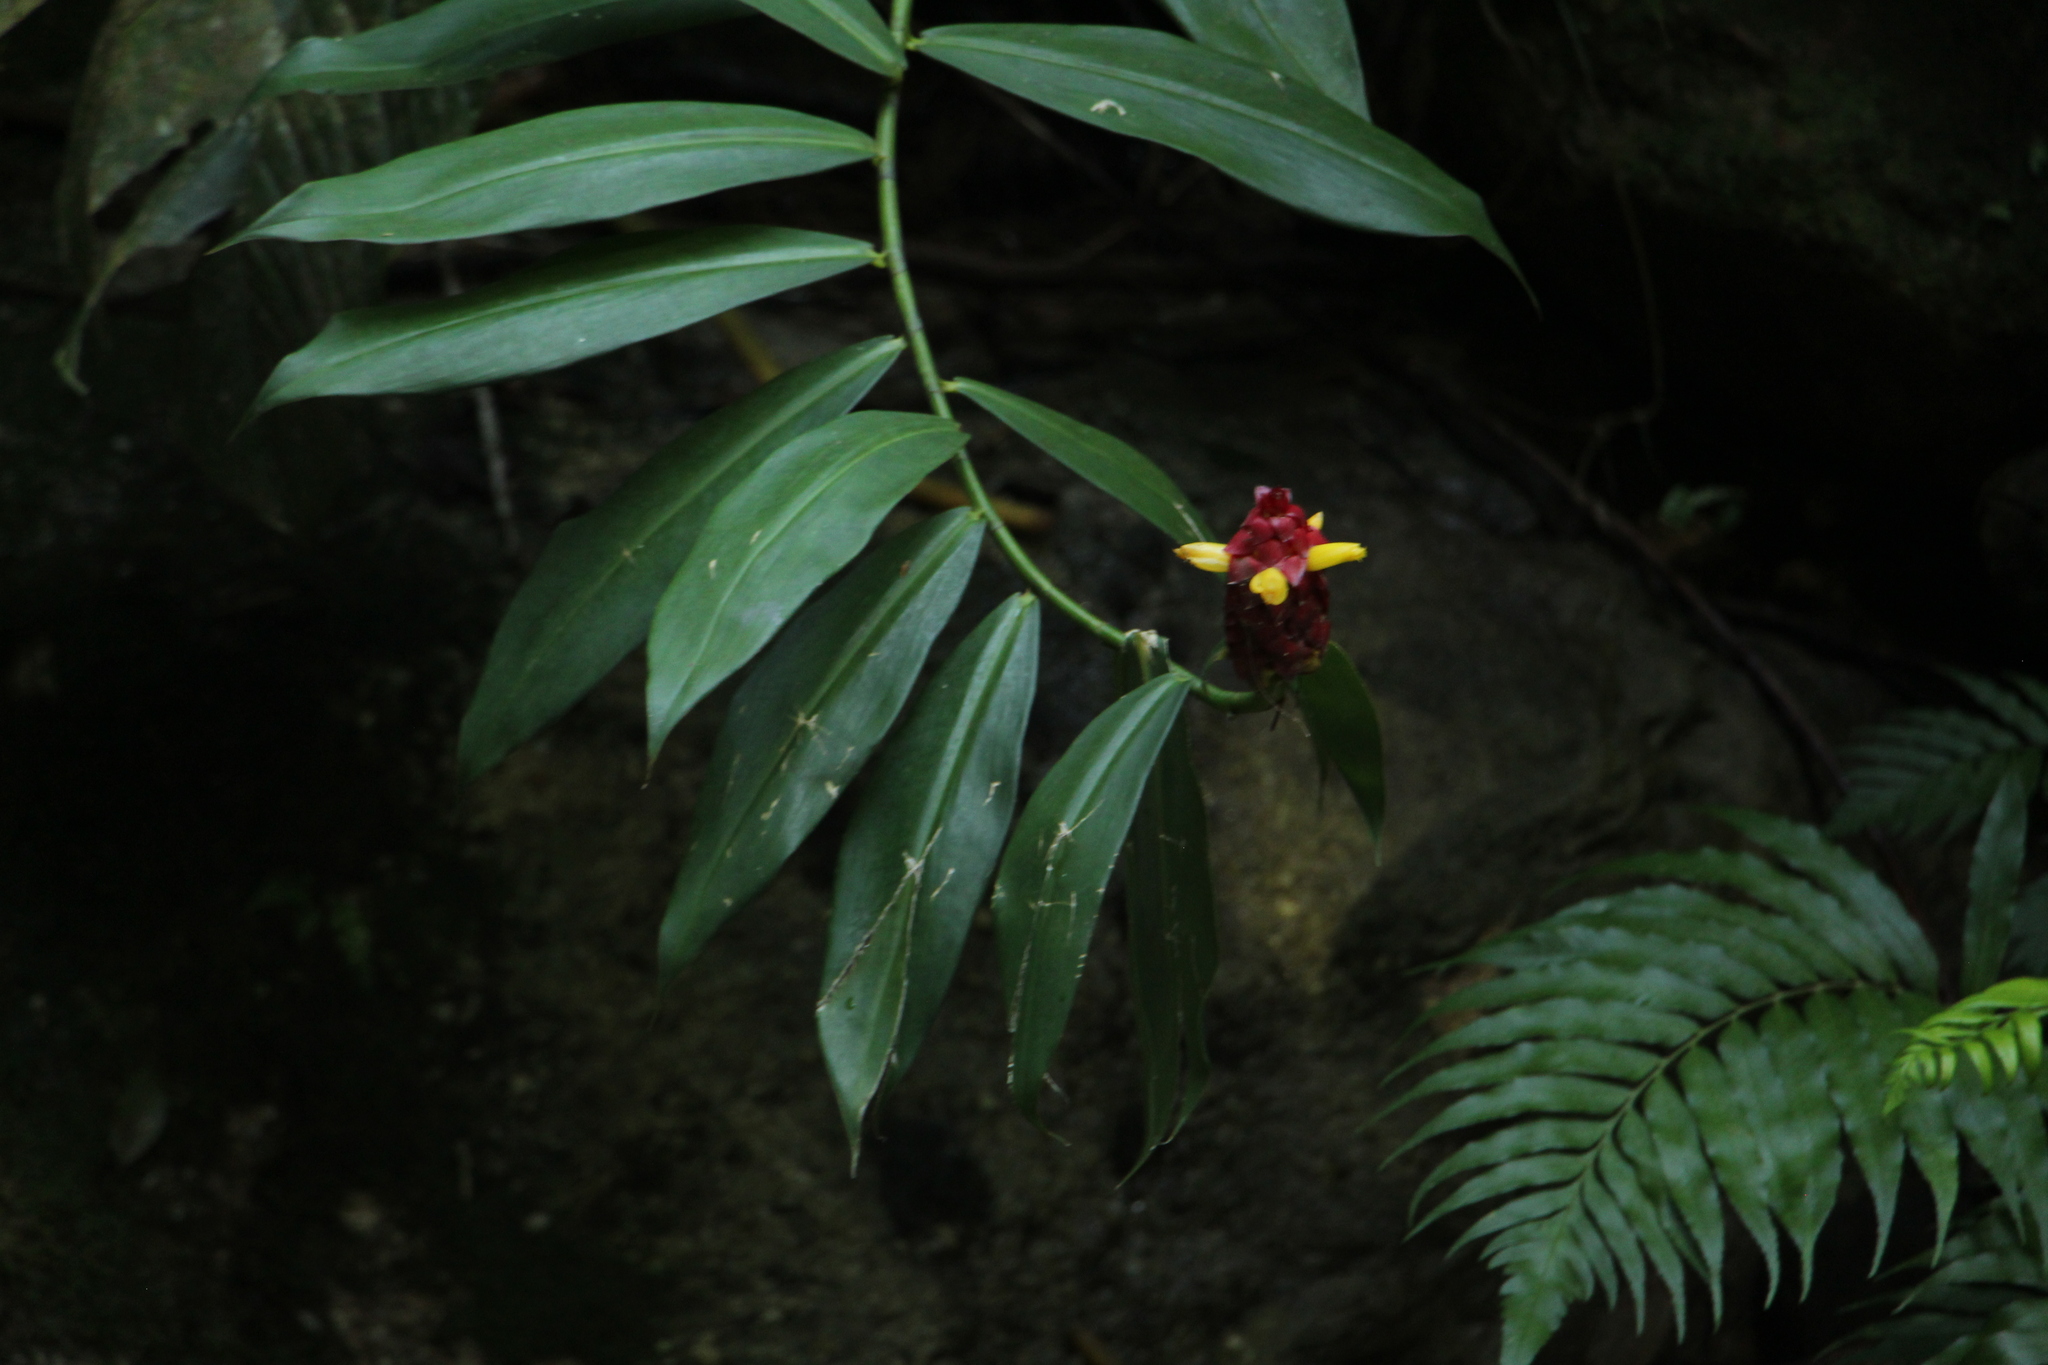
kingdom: Plantae
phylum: Tracheophyta
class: Liliopsida
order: Zingiberales
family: Costaceae
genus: Costus
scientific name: Costus comosus
